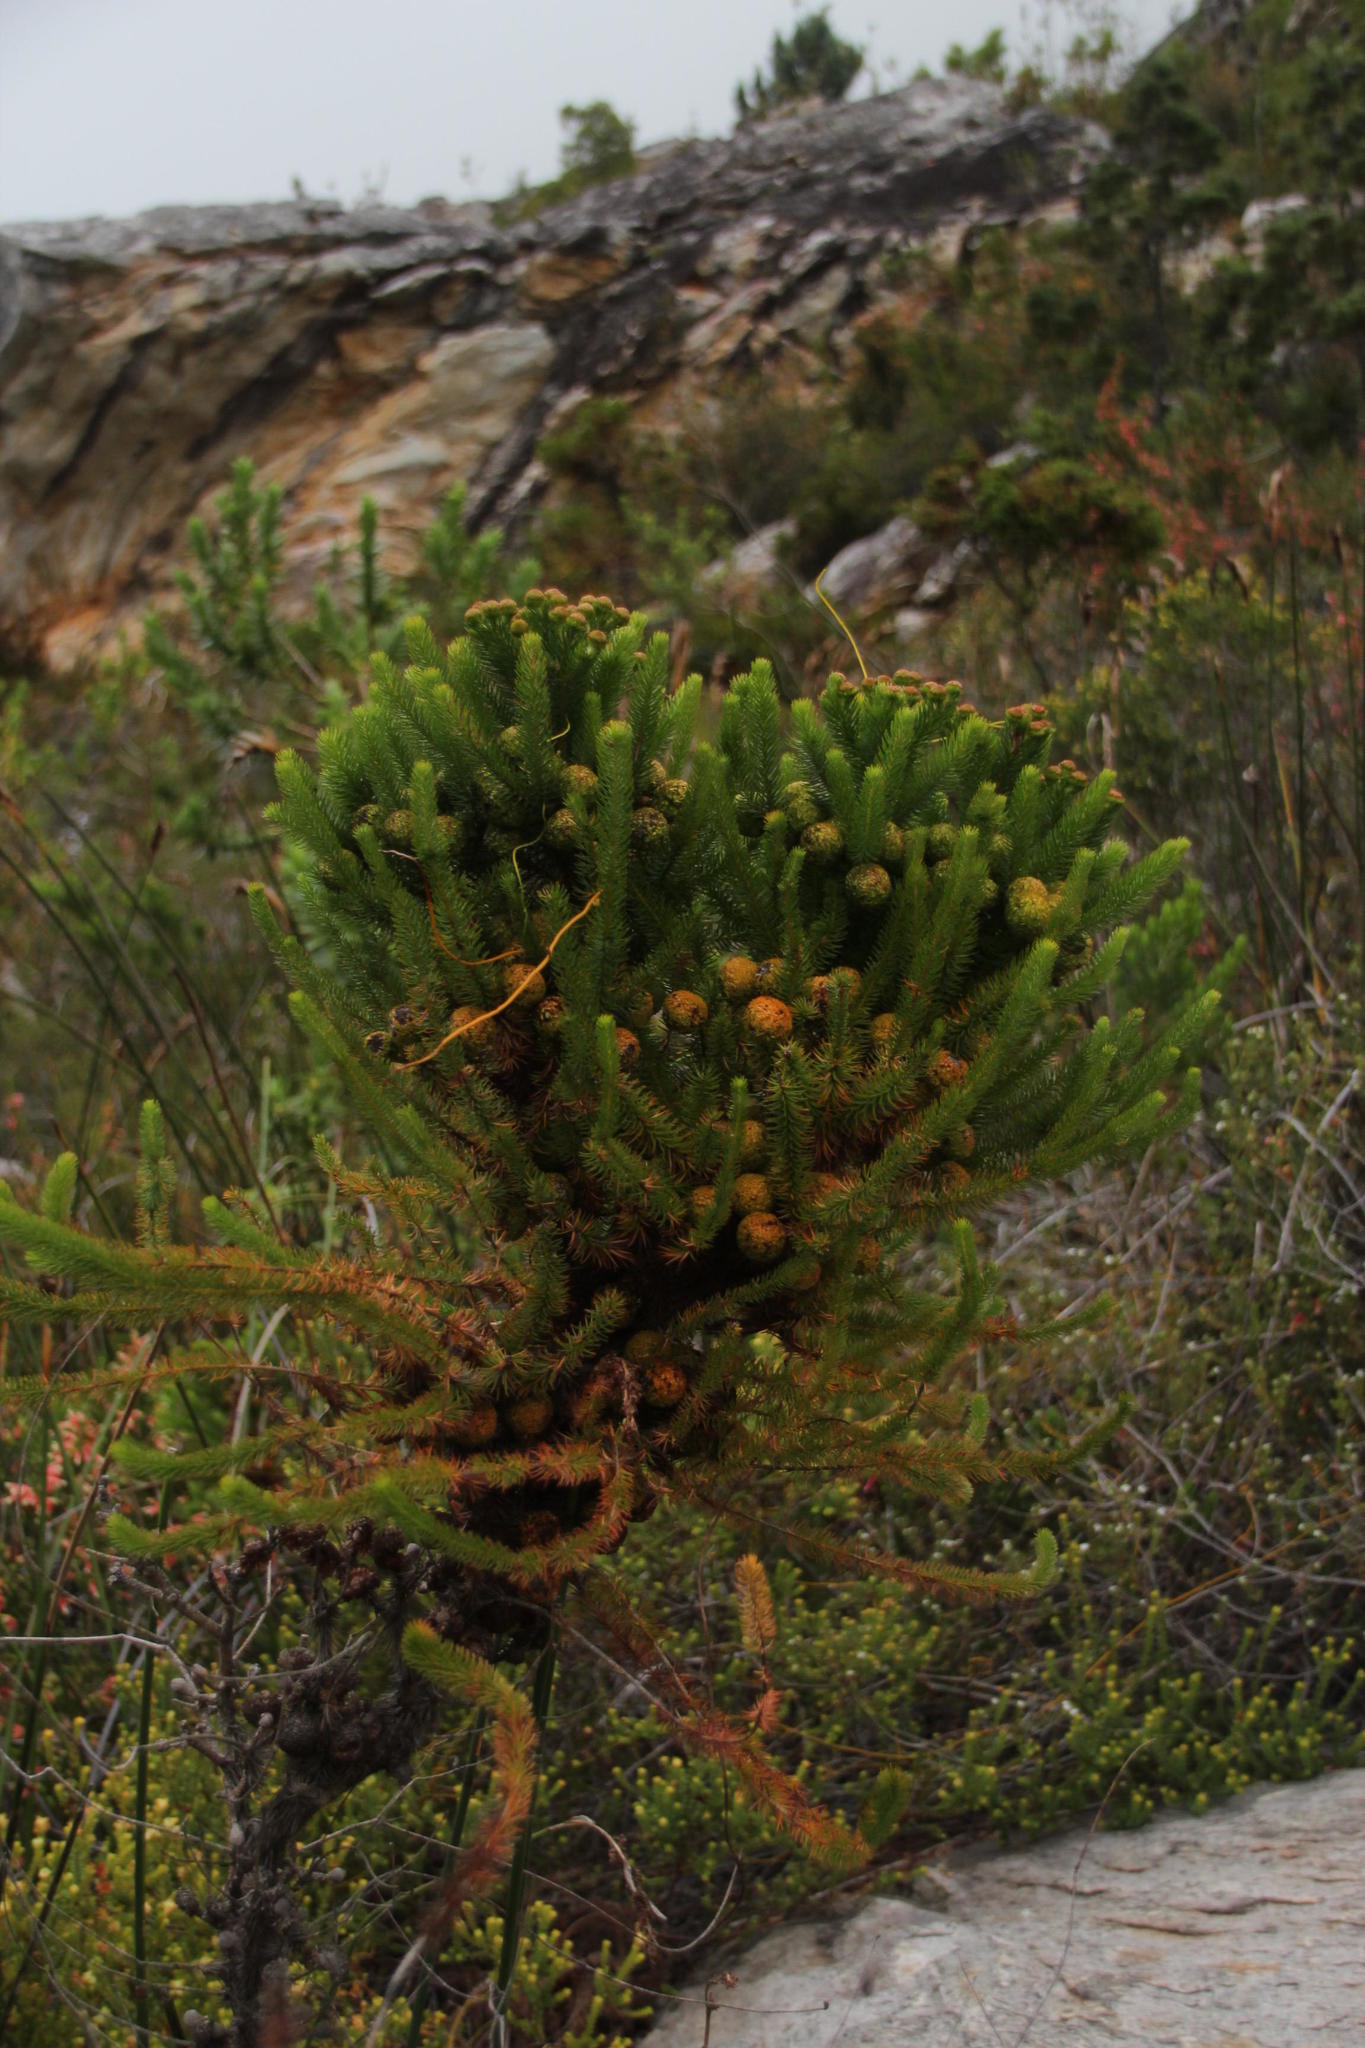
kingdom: Plantae
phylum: Tracheophyta
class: Magnoliopsida
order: Bruniales
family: Bruniaceae
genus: Berzelia
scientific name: Berzelia galpinii
